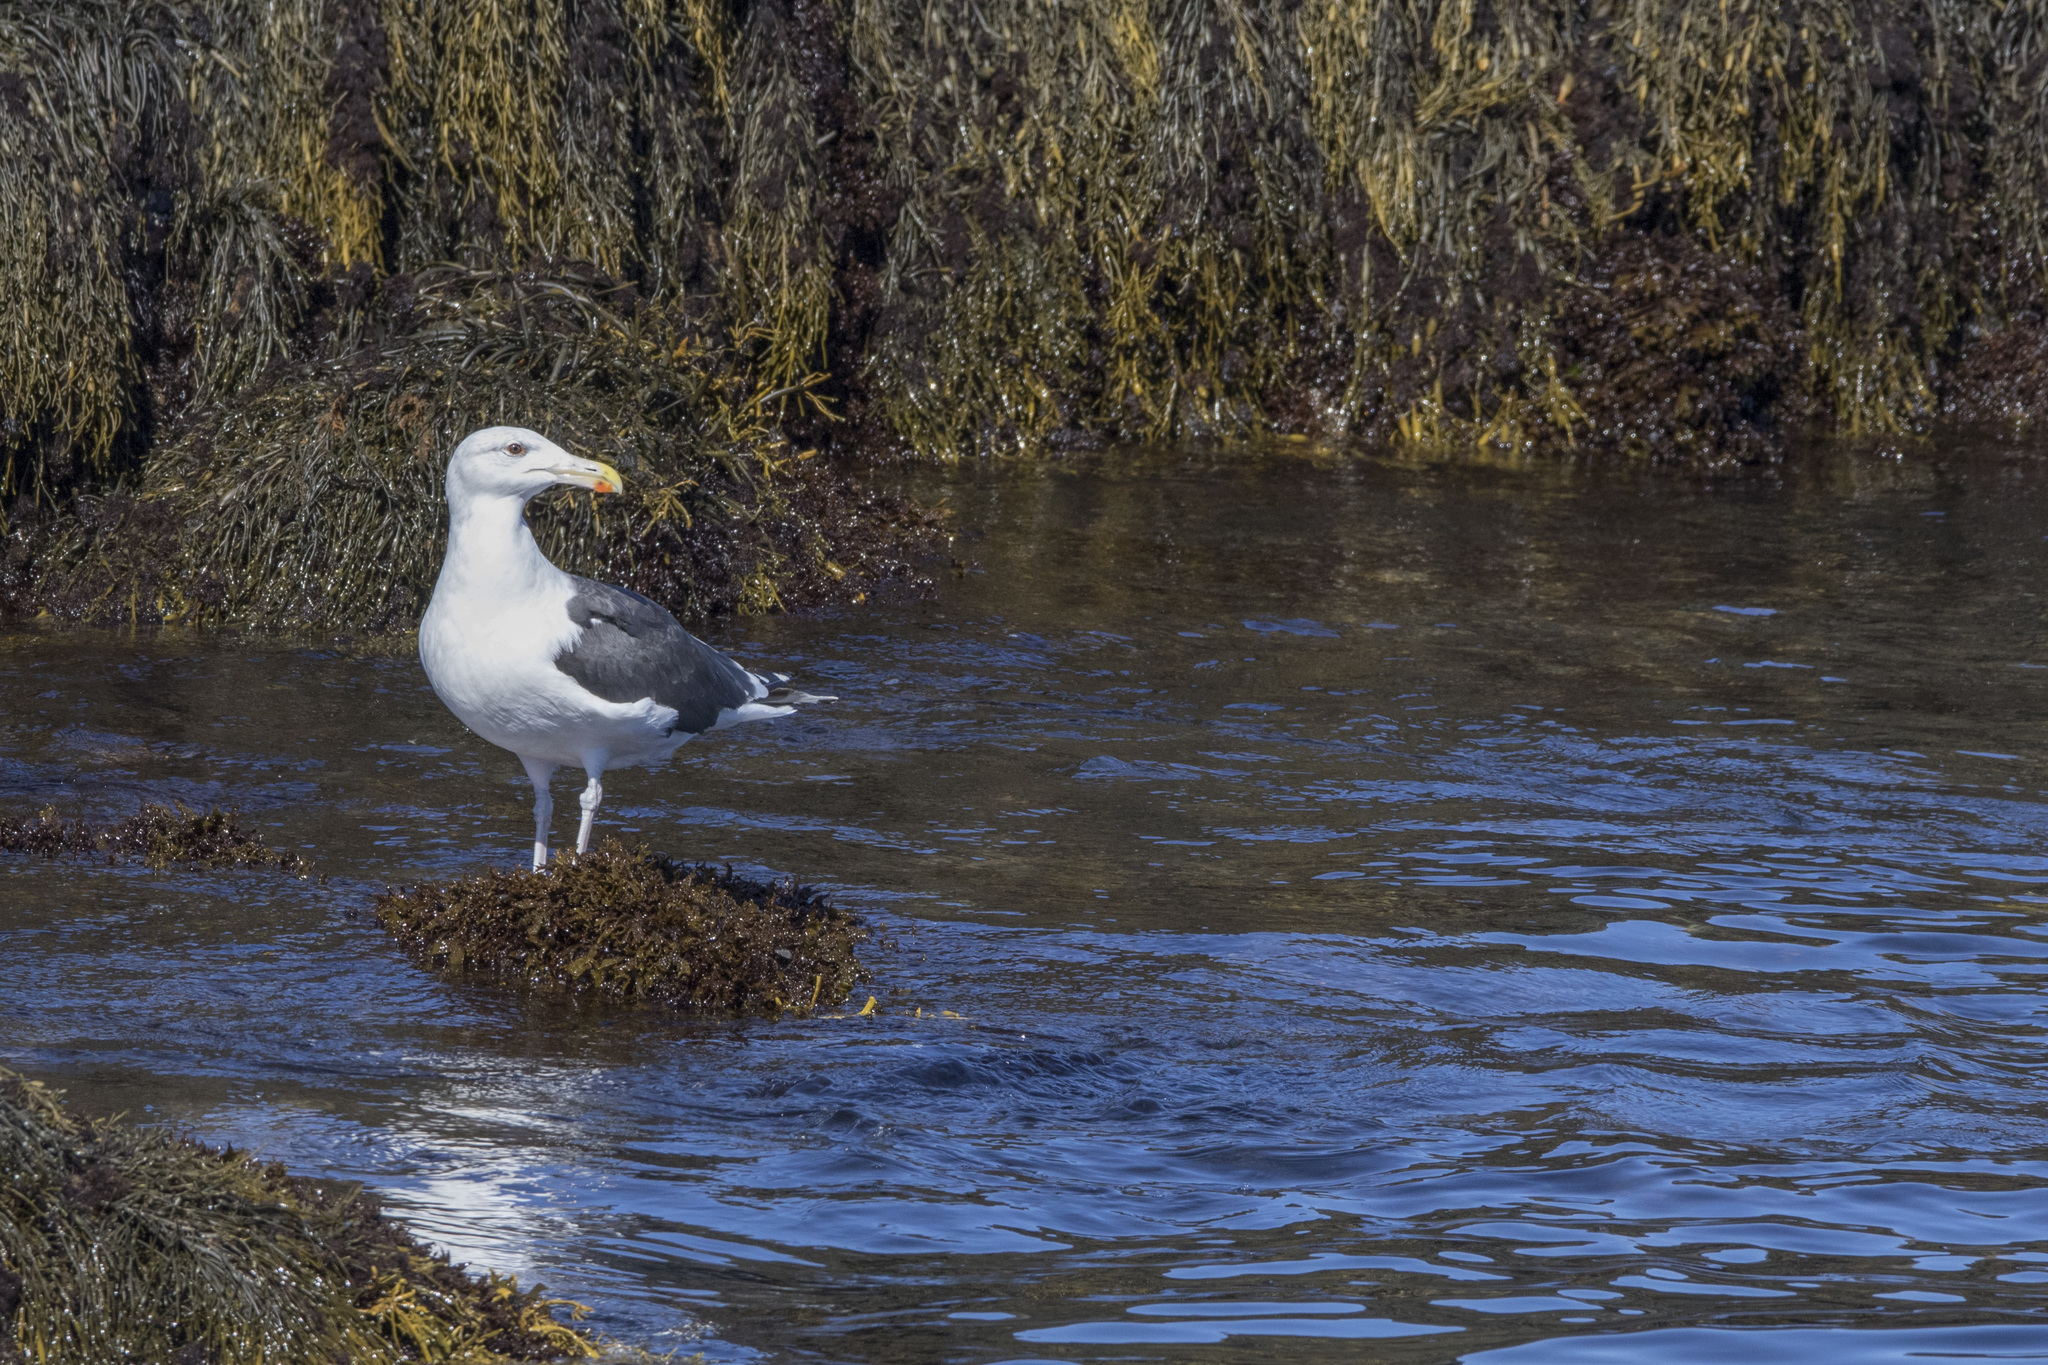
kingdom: Animalia
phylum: Chordata
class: Aves
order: Charadriiformes
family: Laridae
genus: Larus
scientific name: Larus marinus
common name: Great black-backed gull
